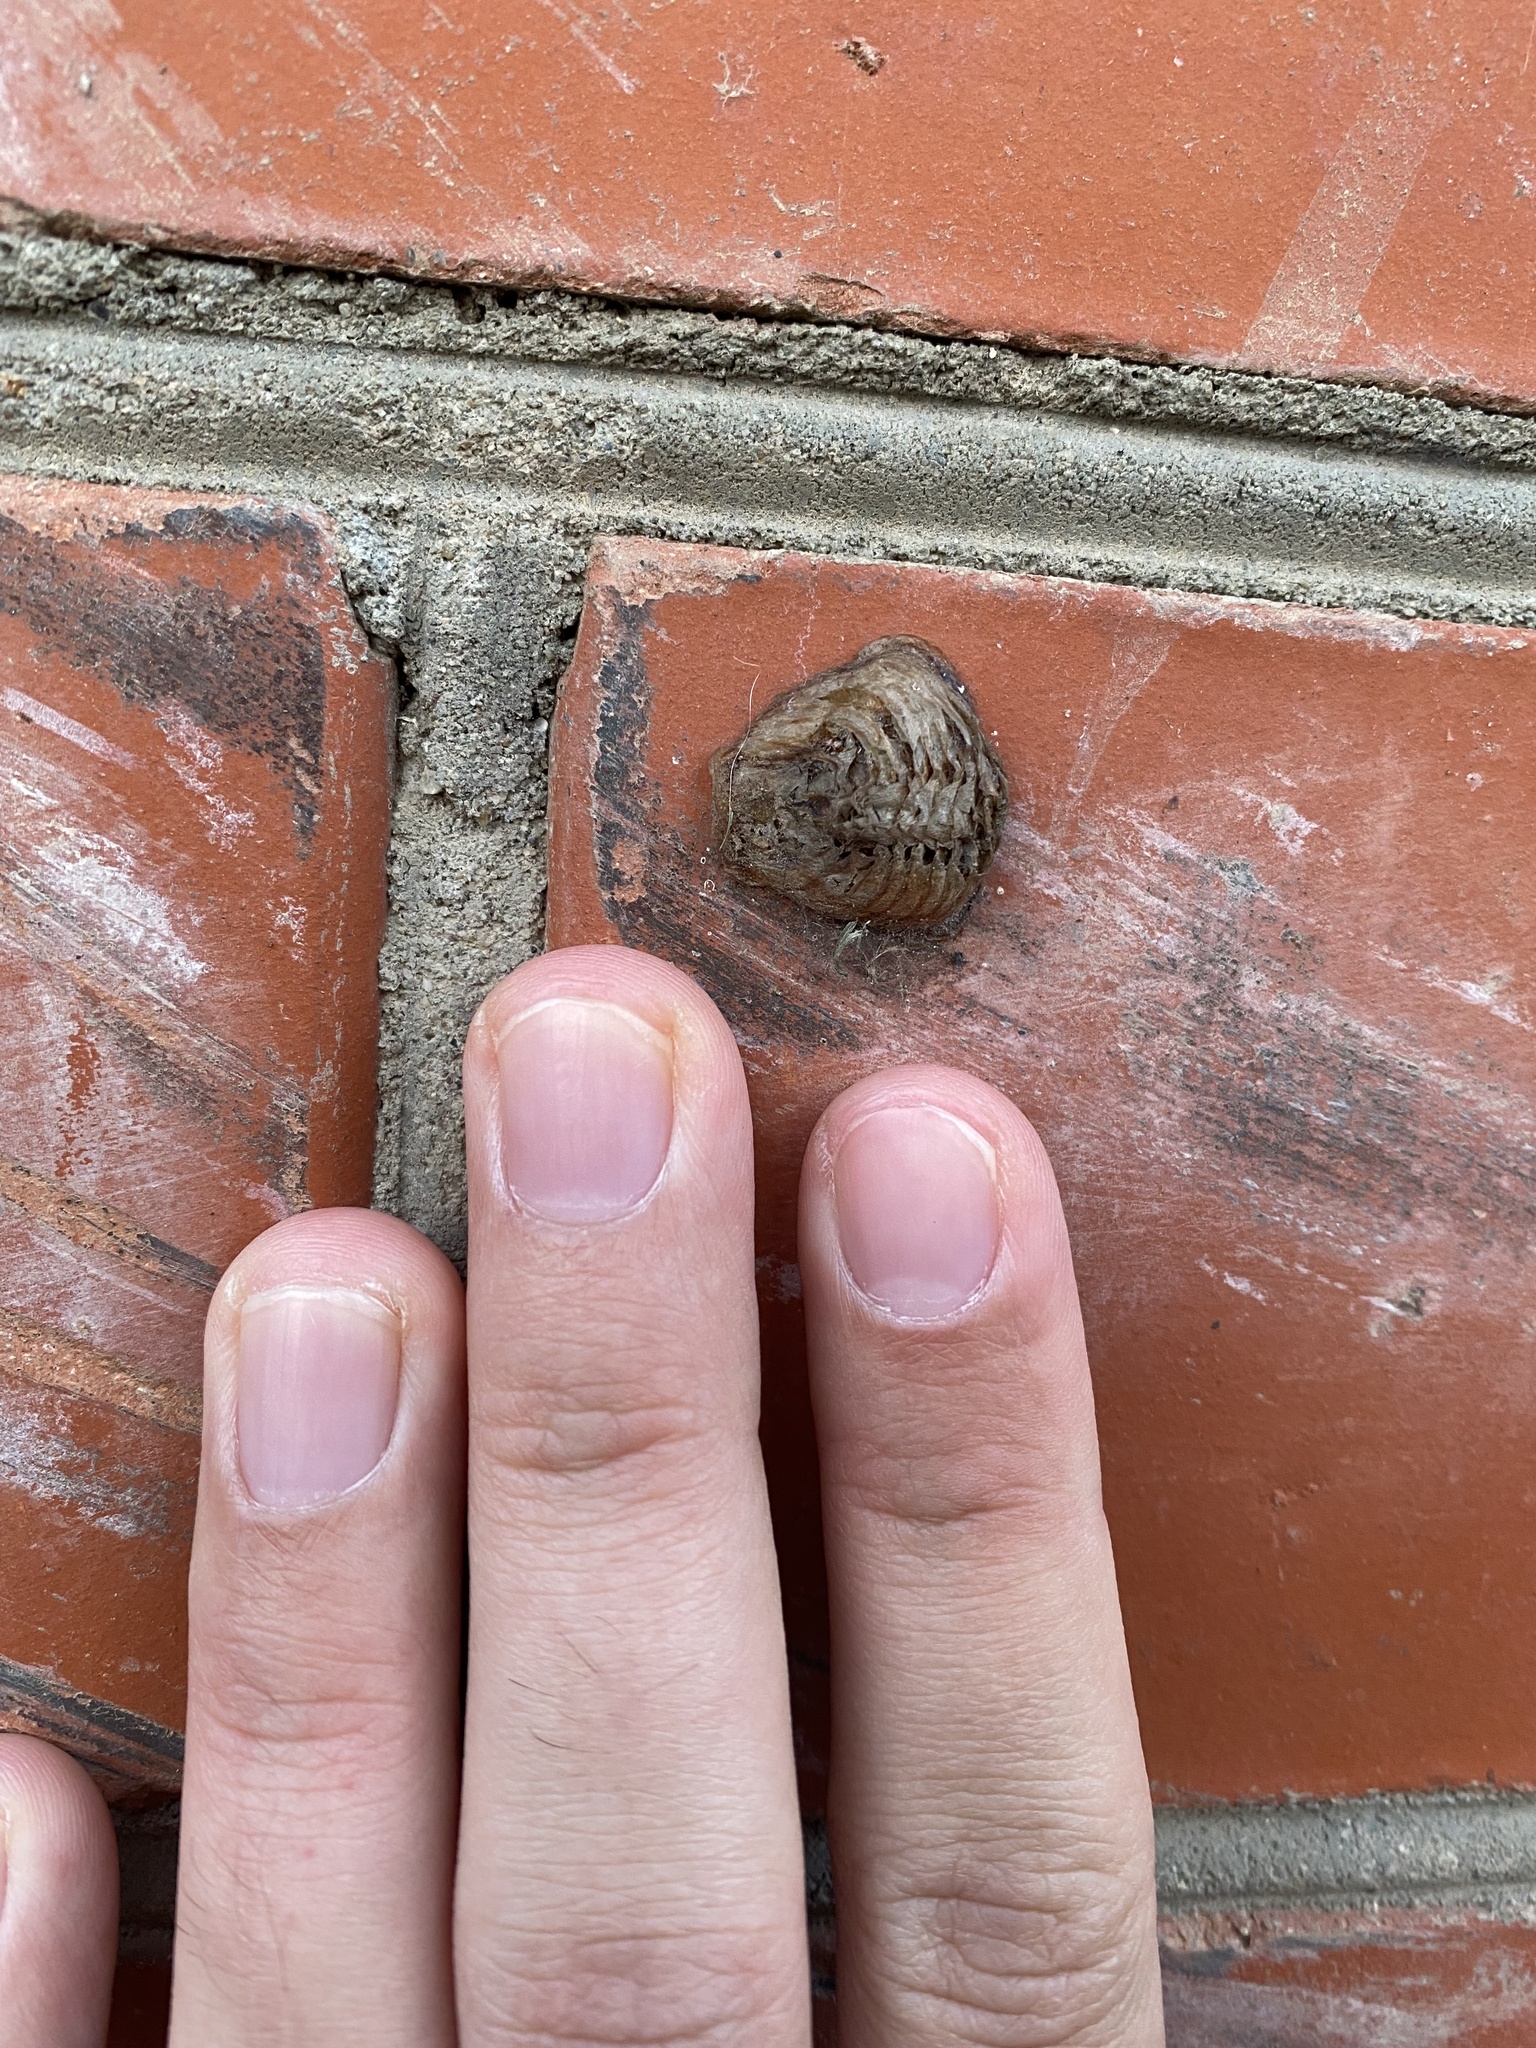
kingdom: Animalia
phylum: Arthropoda
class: Insecta
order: Mantodea
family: Mantidae
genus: Hierodula
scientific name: Hierodula transcaucasica
